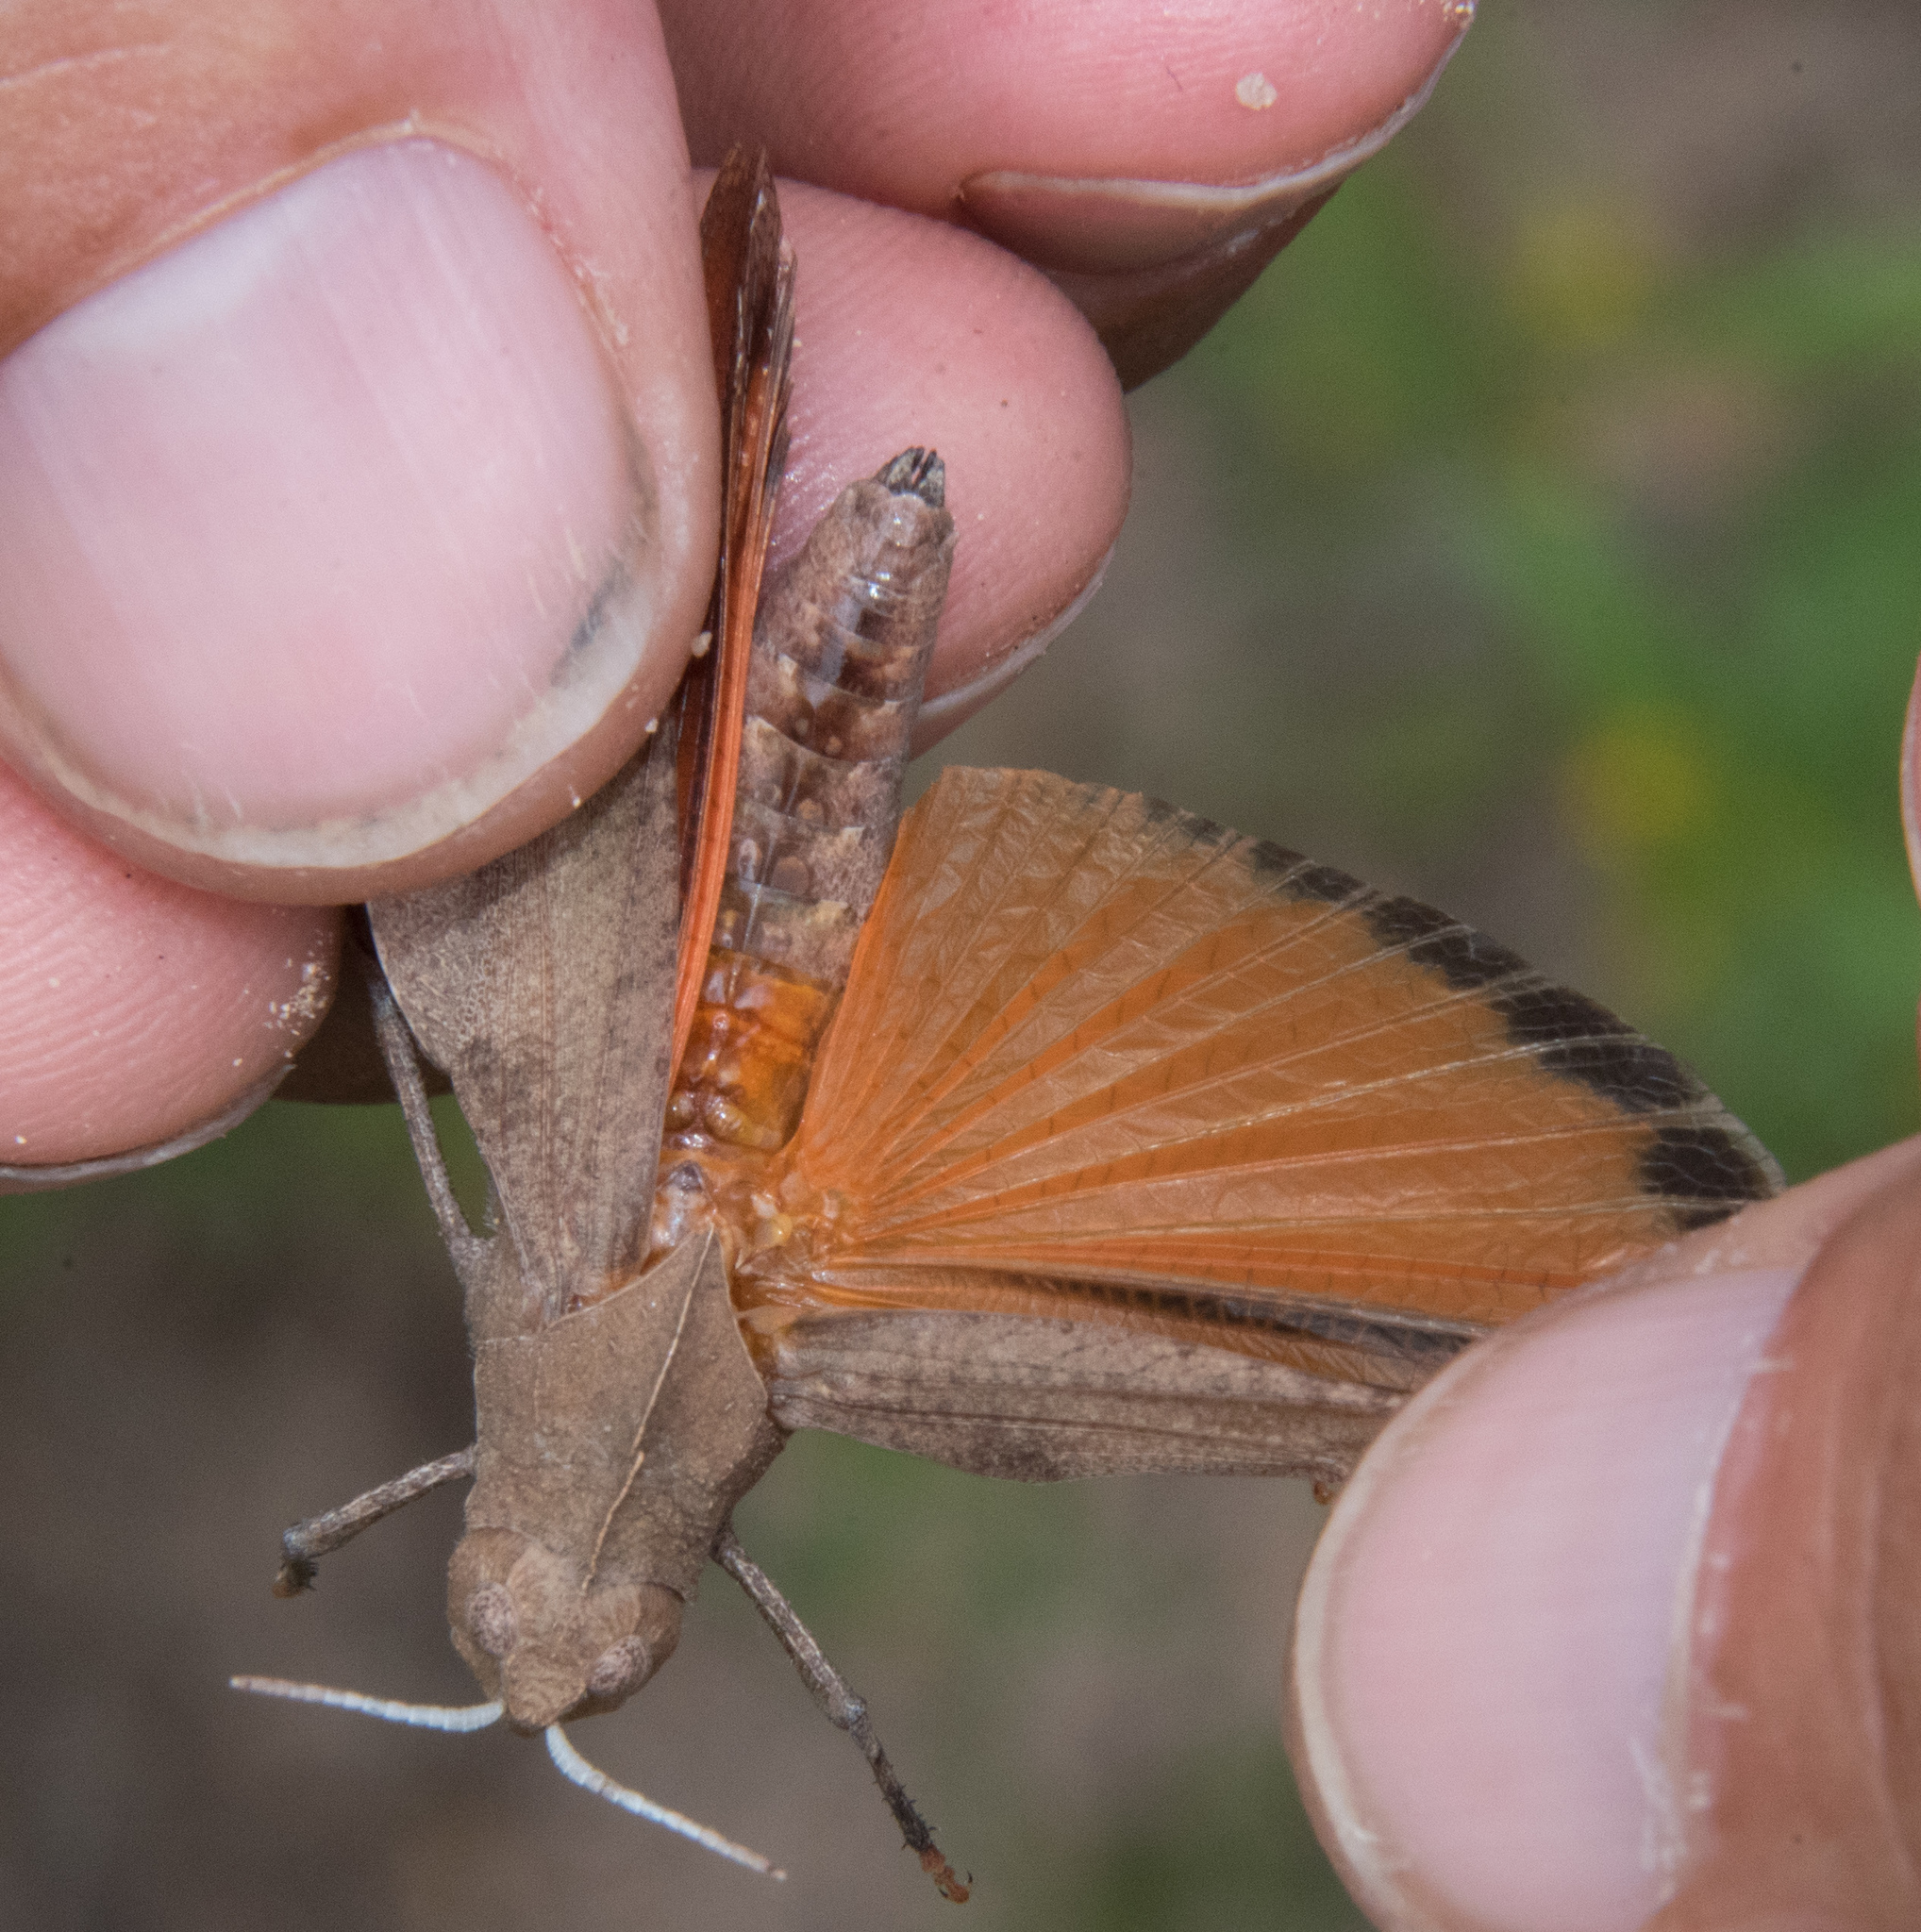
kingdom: Animalia
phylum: Arthropoda
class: Insecta
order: Orthoptera
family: Acrididae
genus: Tomonotus
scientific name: Tomonotus ferruginosus
